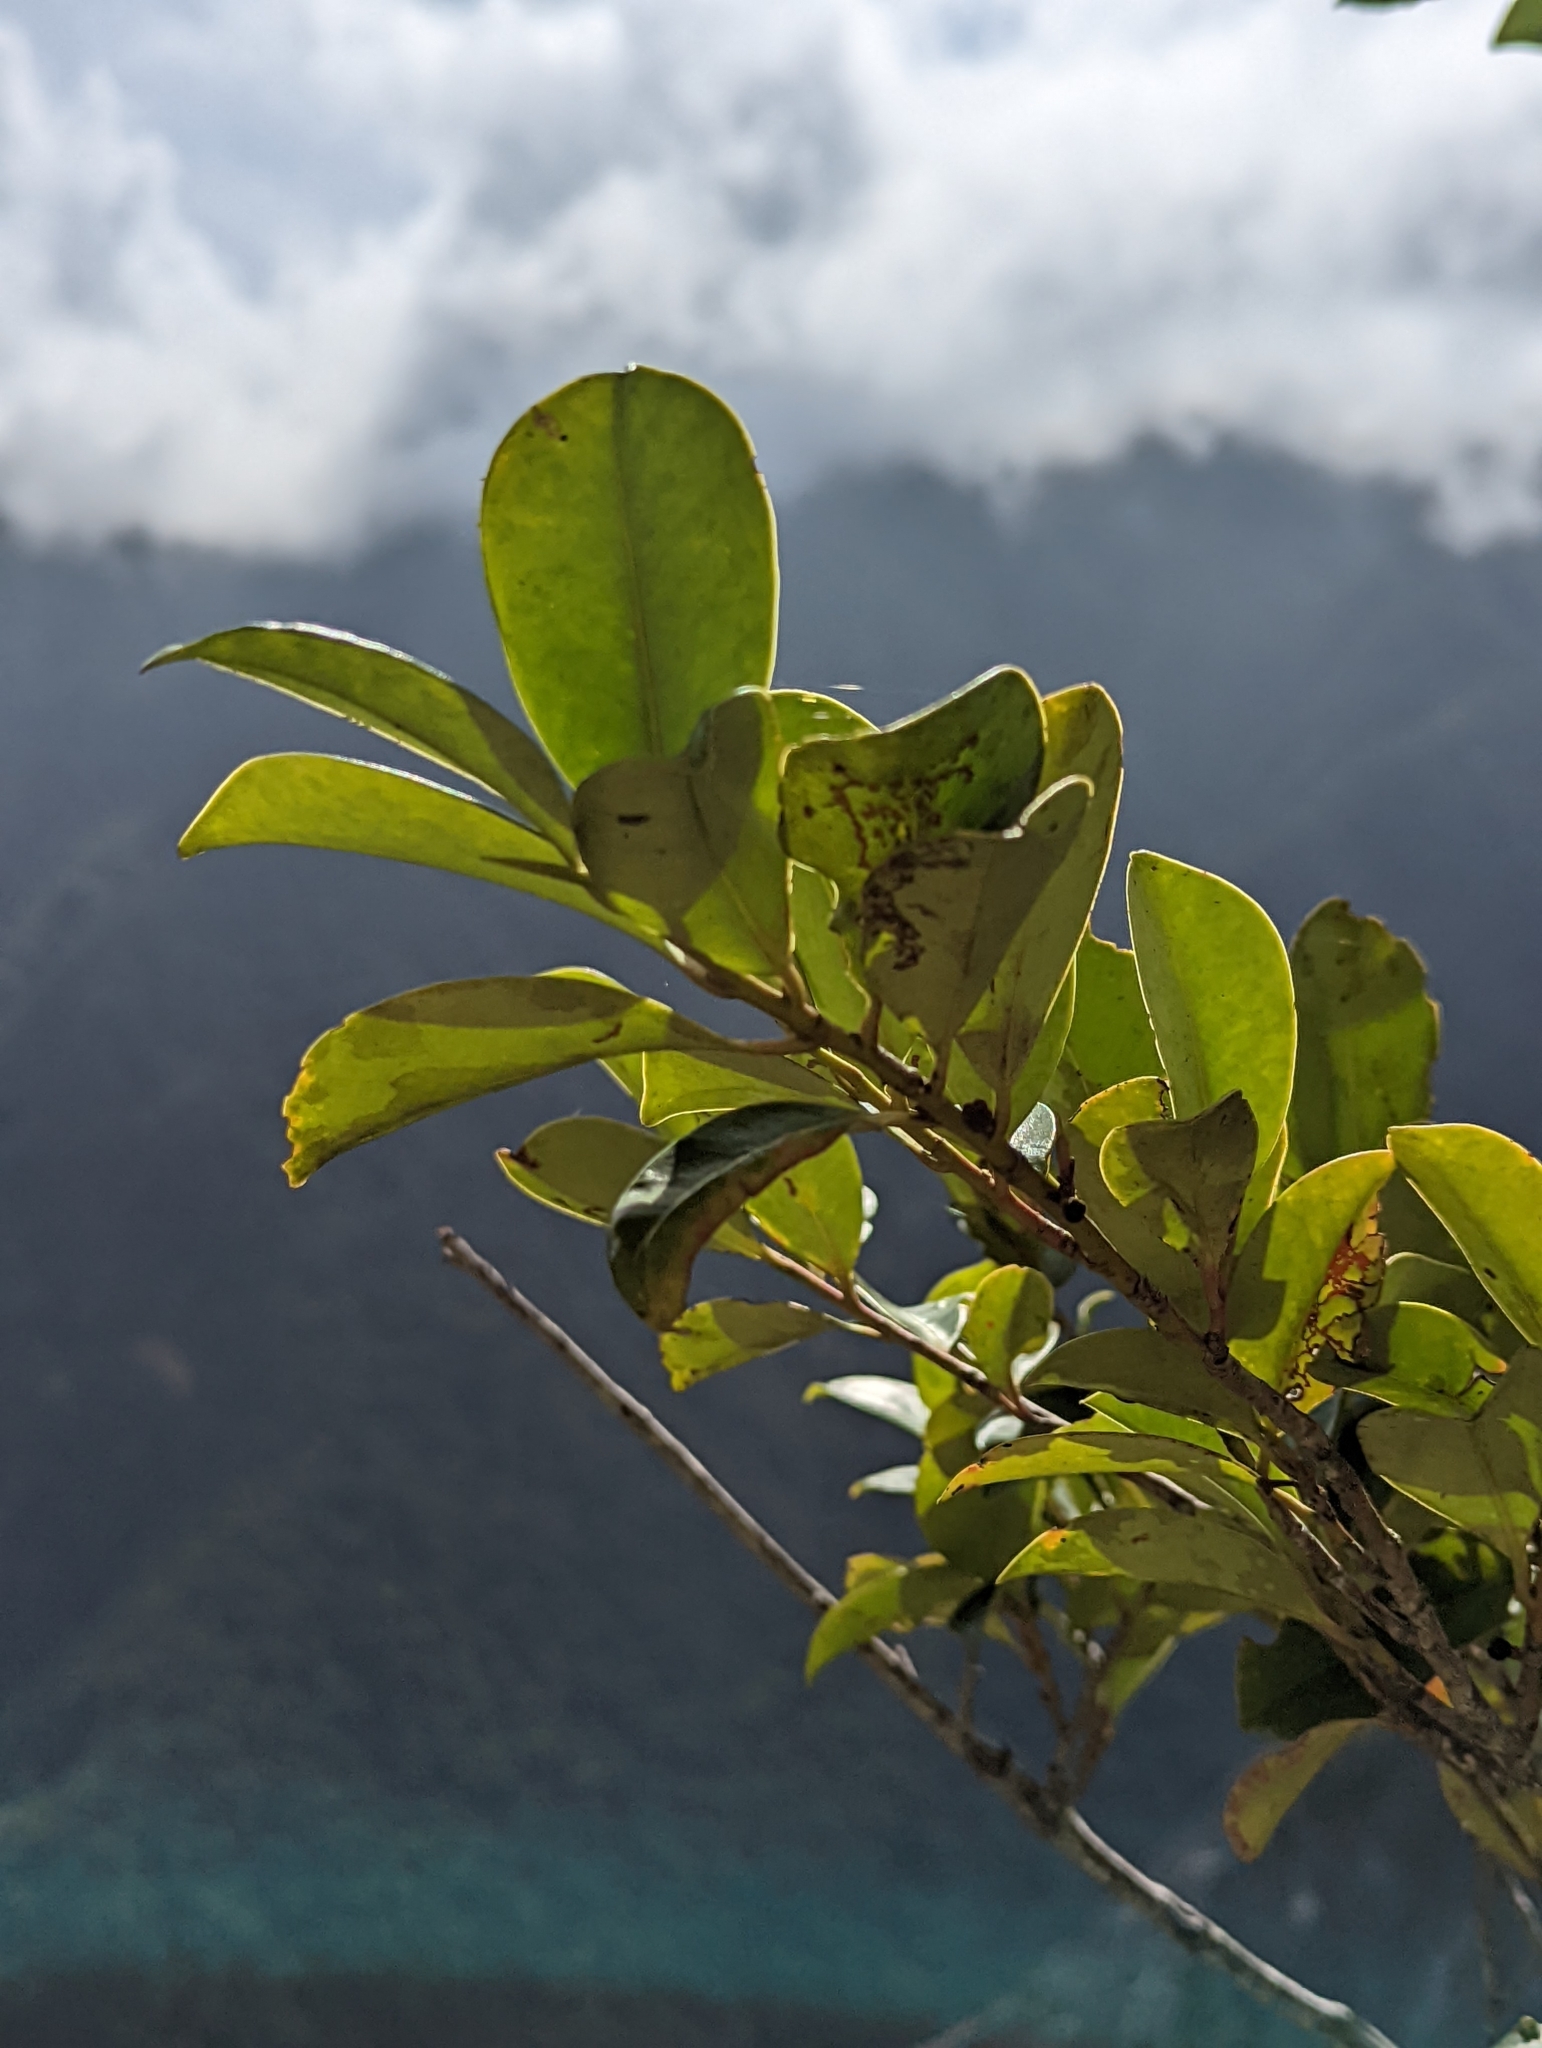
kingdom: Plantae
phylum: Tracheophyta
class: Magnoliopsida
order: Ericales
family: Pentaphylacaceae
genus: Cleyera
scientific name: Cleyera japonica
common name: Sakaki
